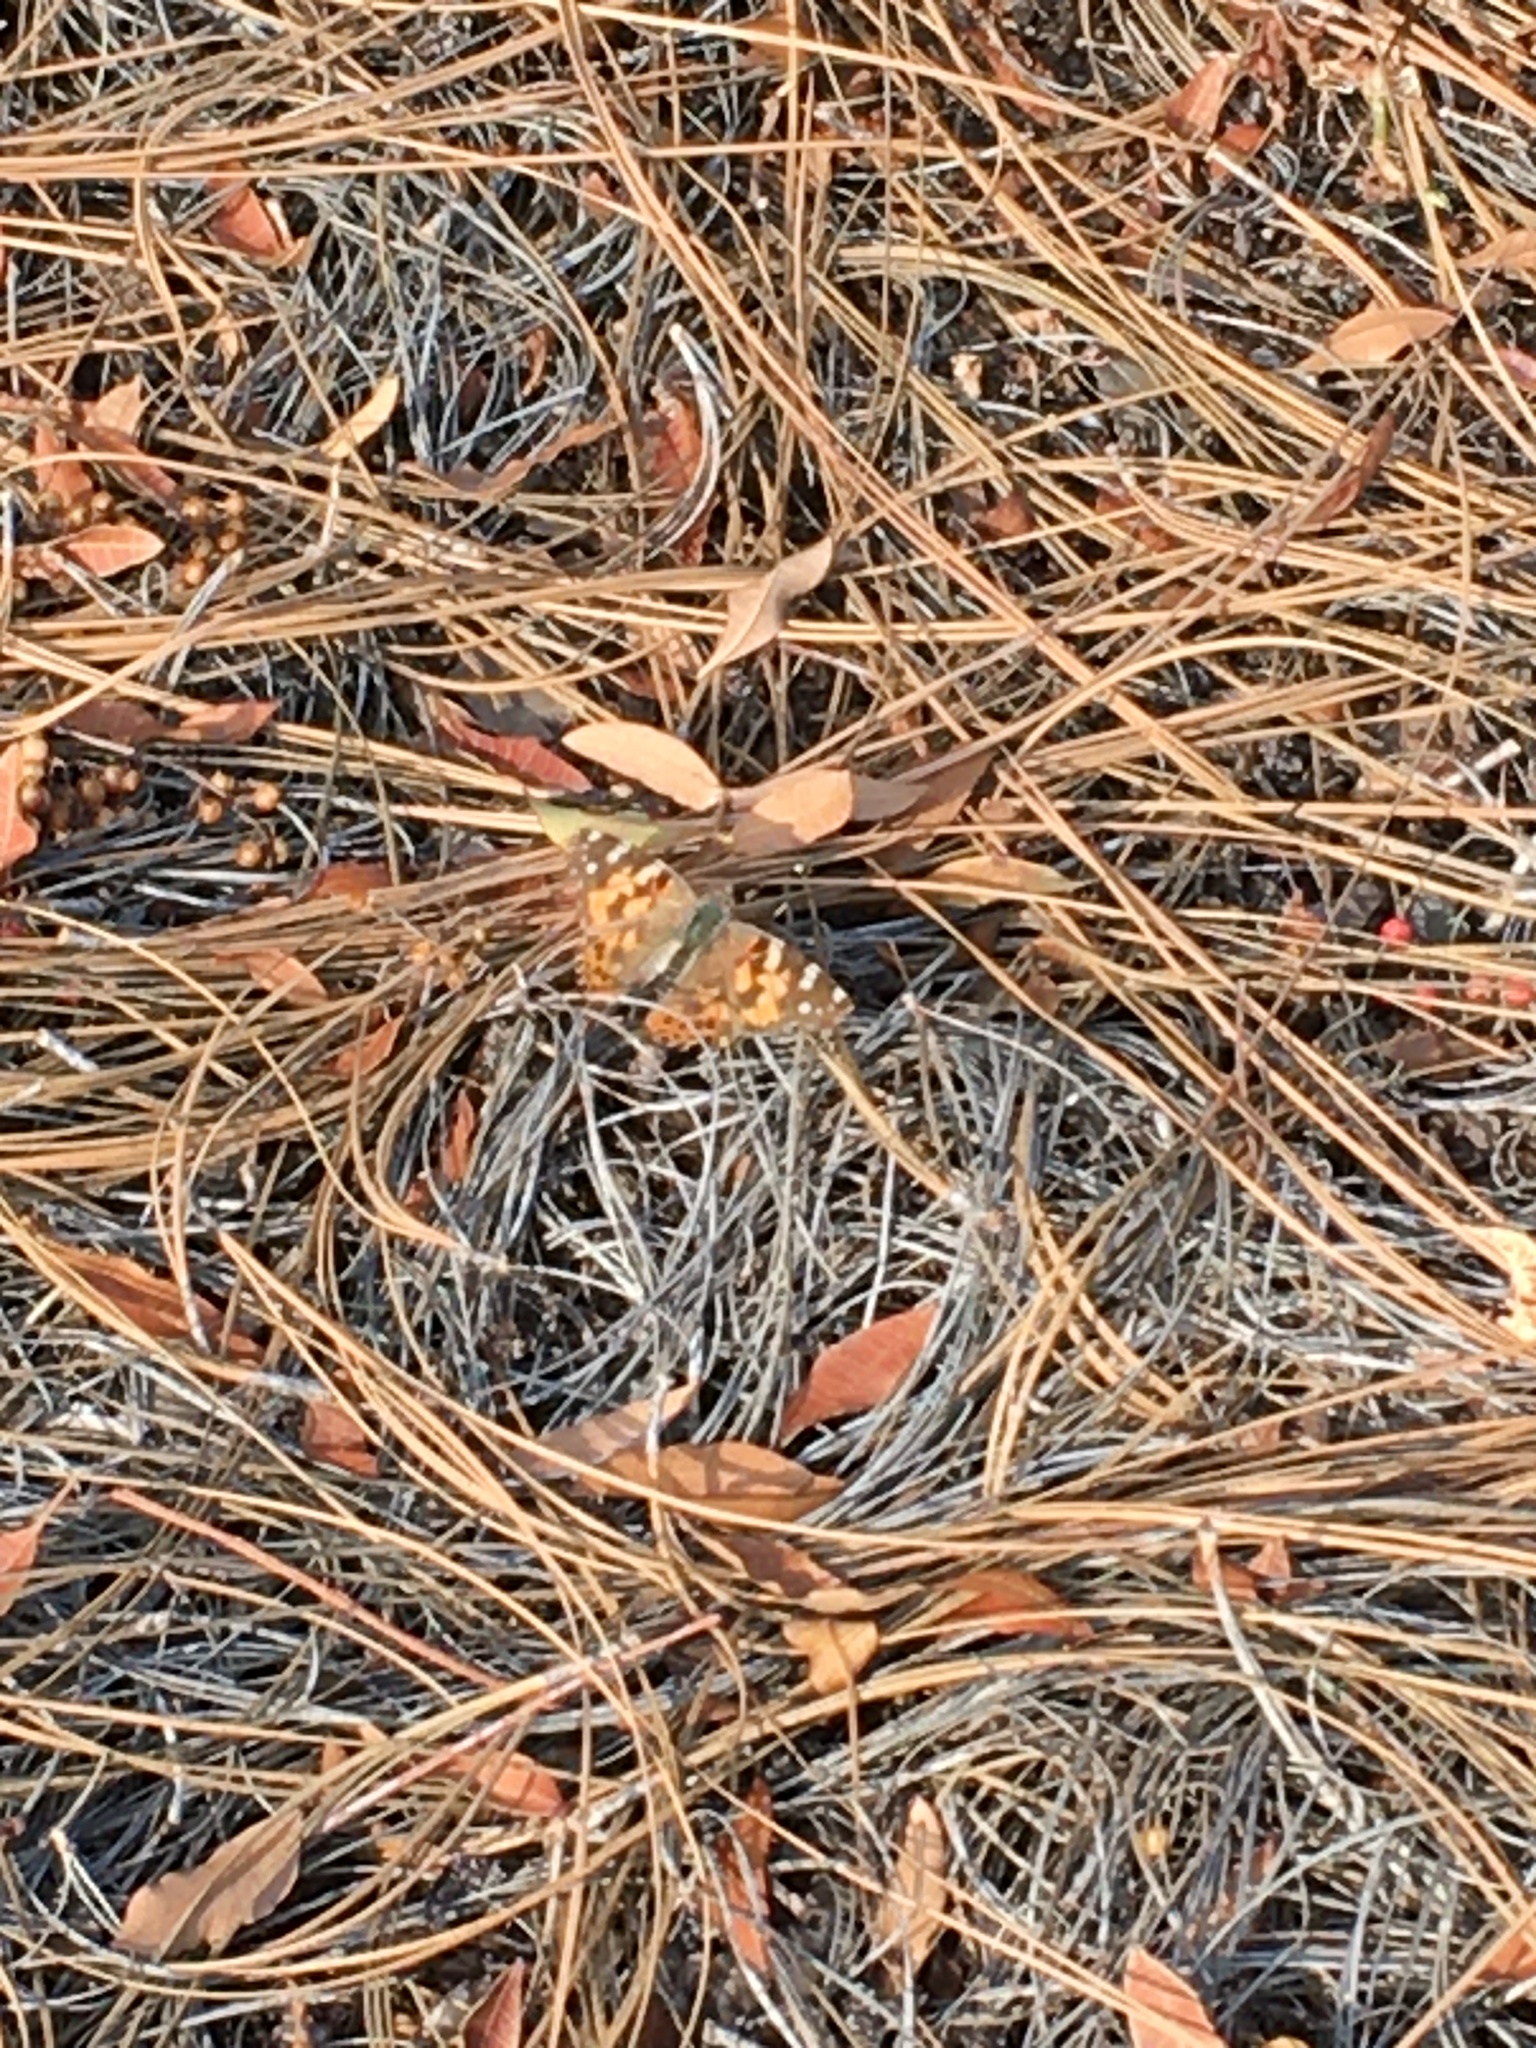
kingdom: Animalia
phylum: Arthropoda
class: Insecta
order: Lepidoptera
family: Nymphalidae
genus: Vanessa
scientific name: Vanessa cardui
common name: Painted lady
